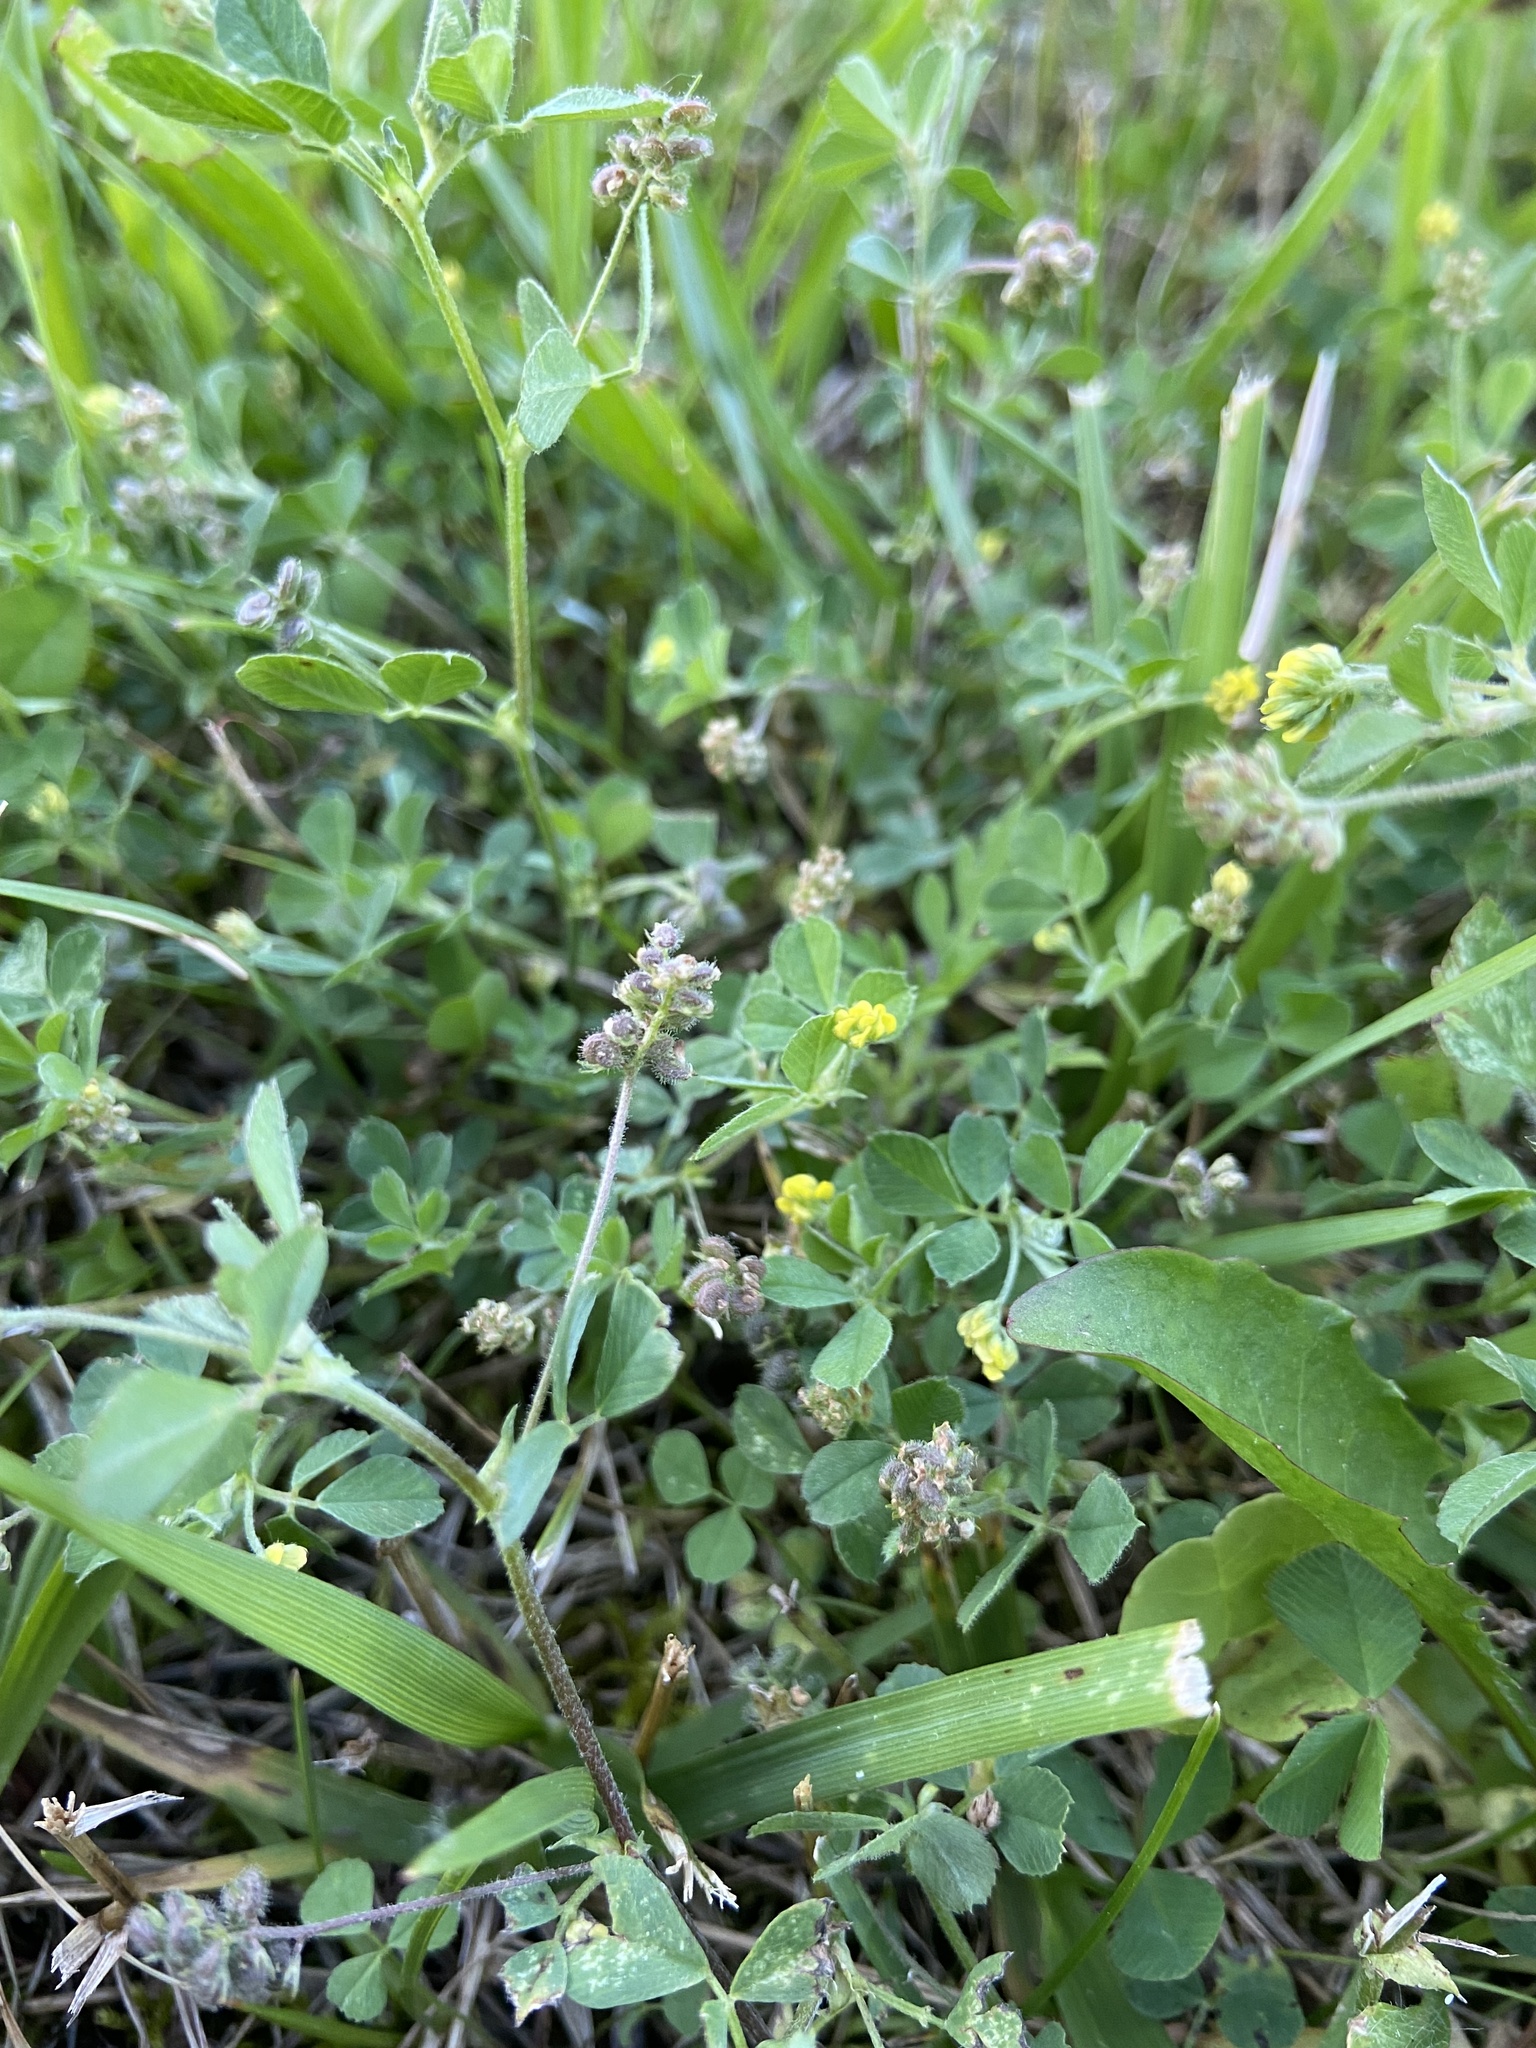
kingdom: Plantae
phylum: Tracheophyta
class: Magnoliopsida
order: Fabales
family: Fabaceae
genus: Medicago
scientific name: Medicago lupulina
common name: Black medick
